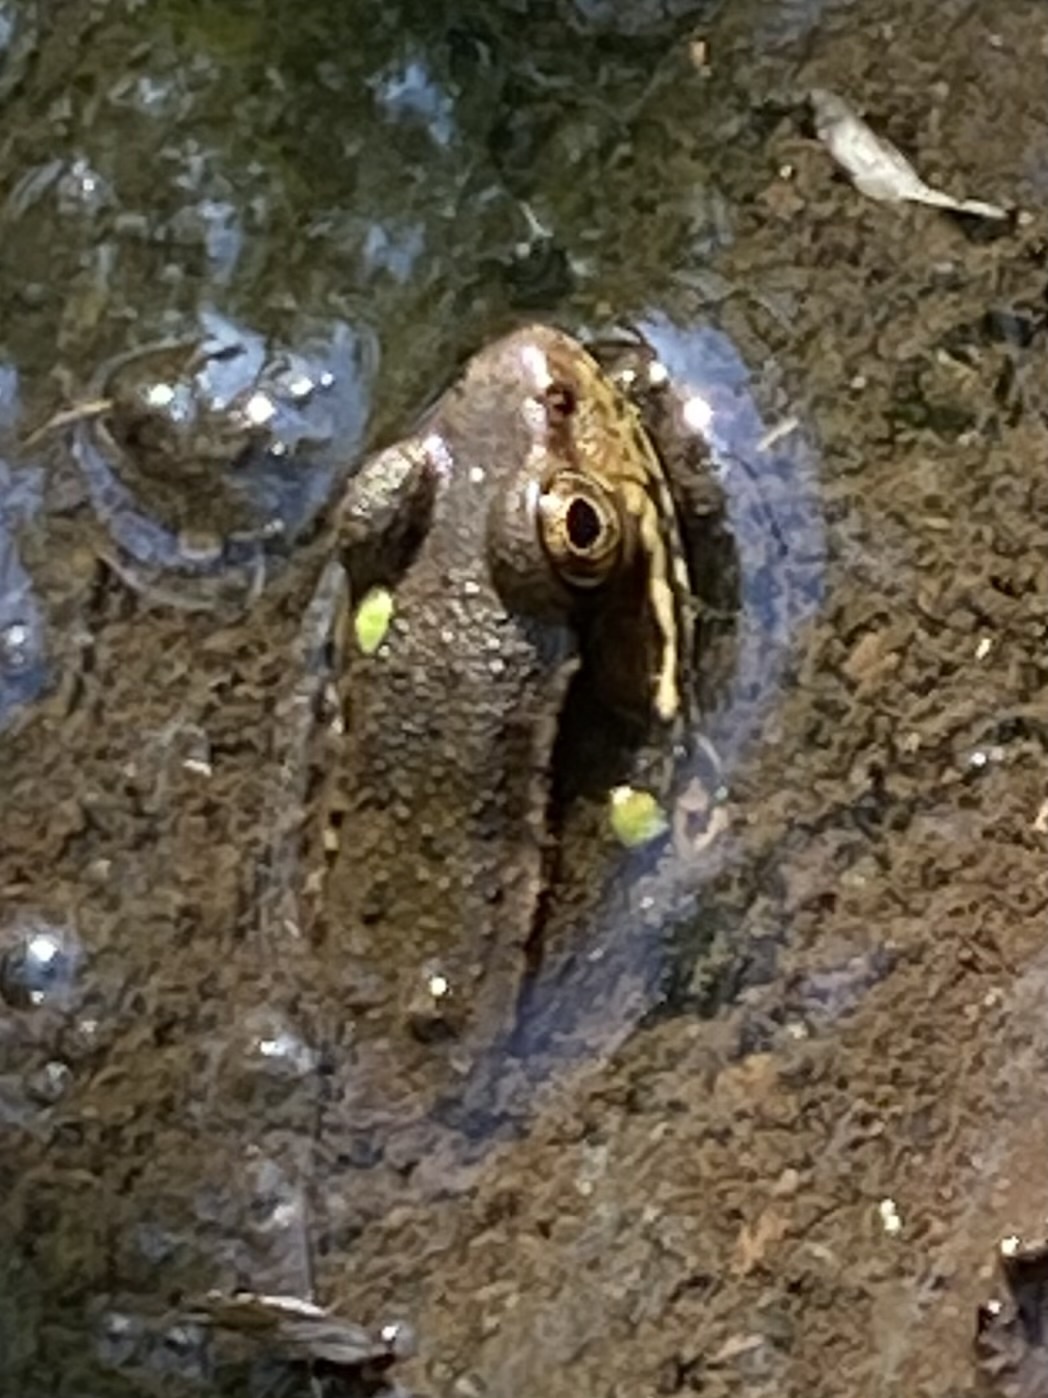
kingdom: Animalia
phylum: Chordata
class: Amphibia
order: Anura
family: Ranidae
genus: Lithobates
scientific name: Lithobates clamitans
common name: Green frog
